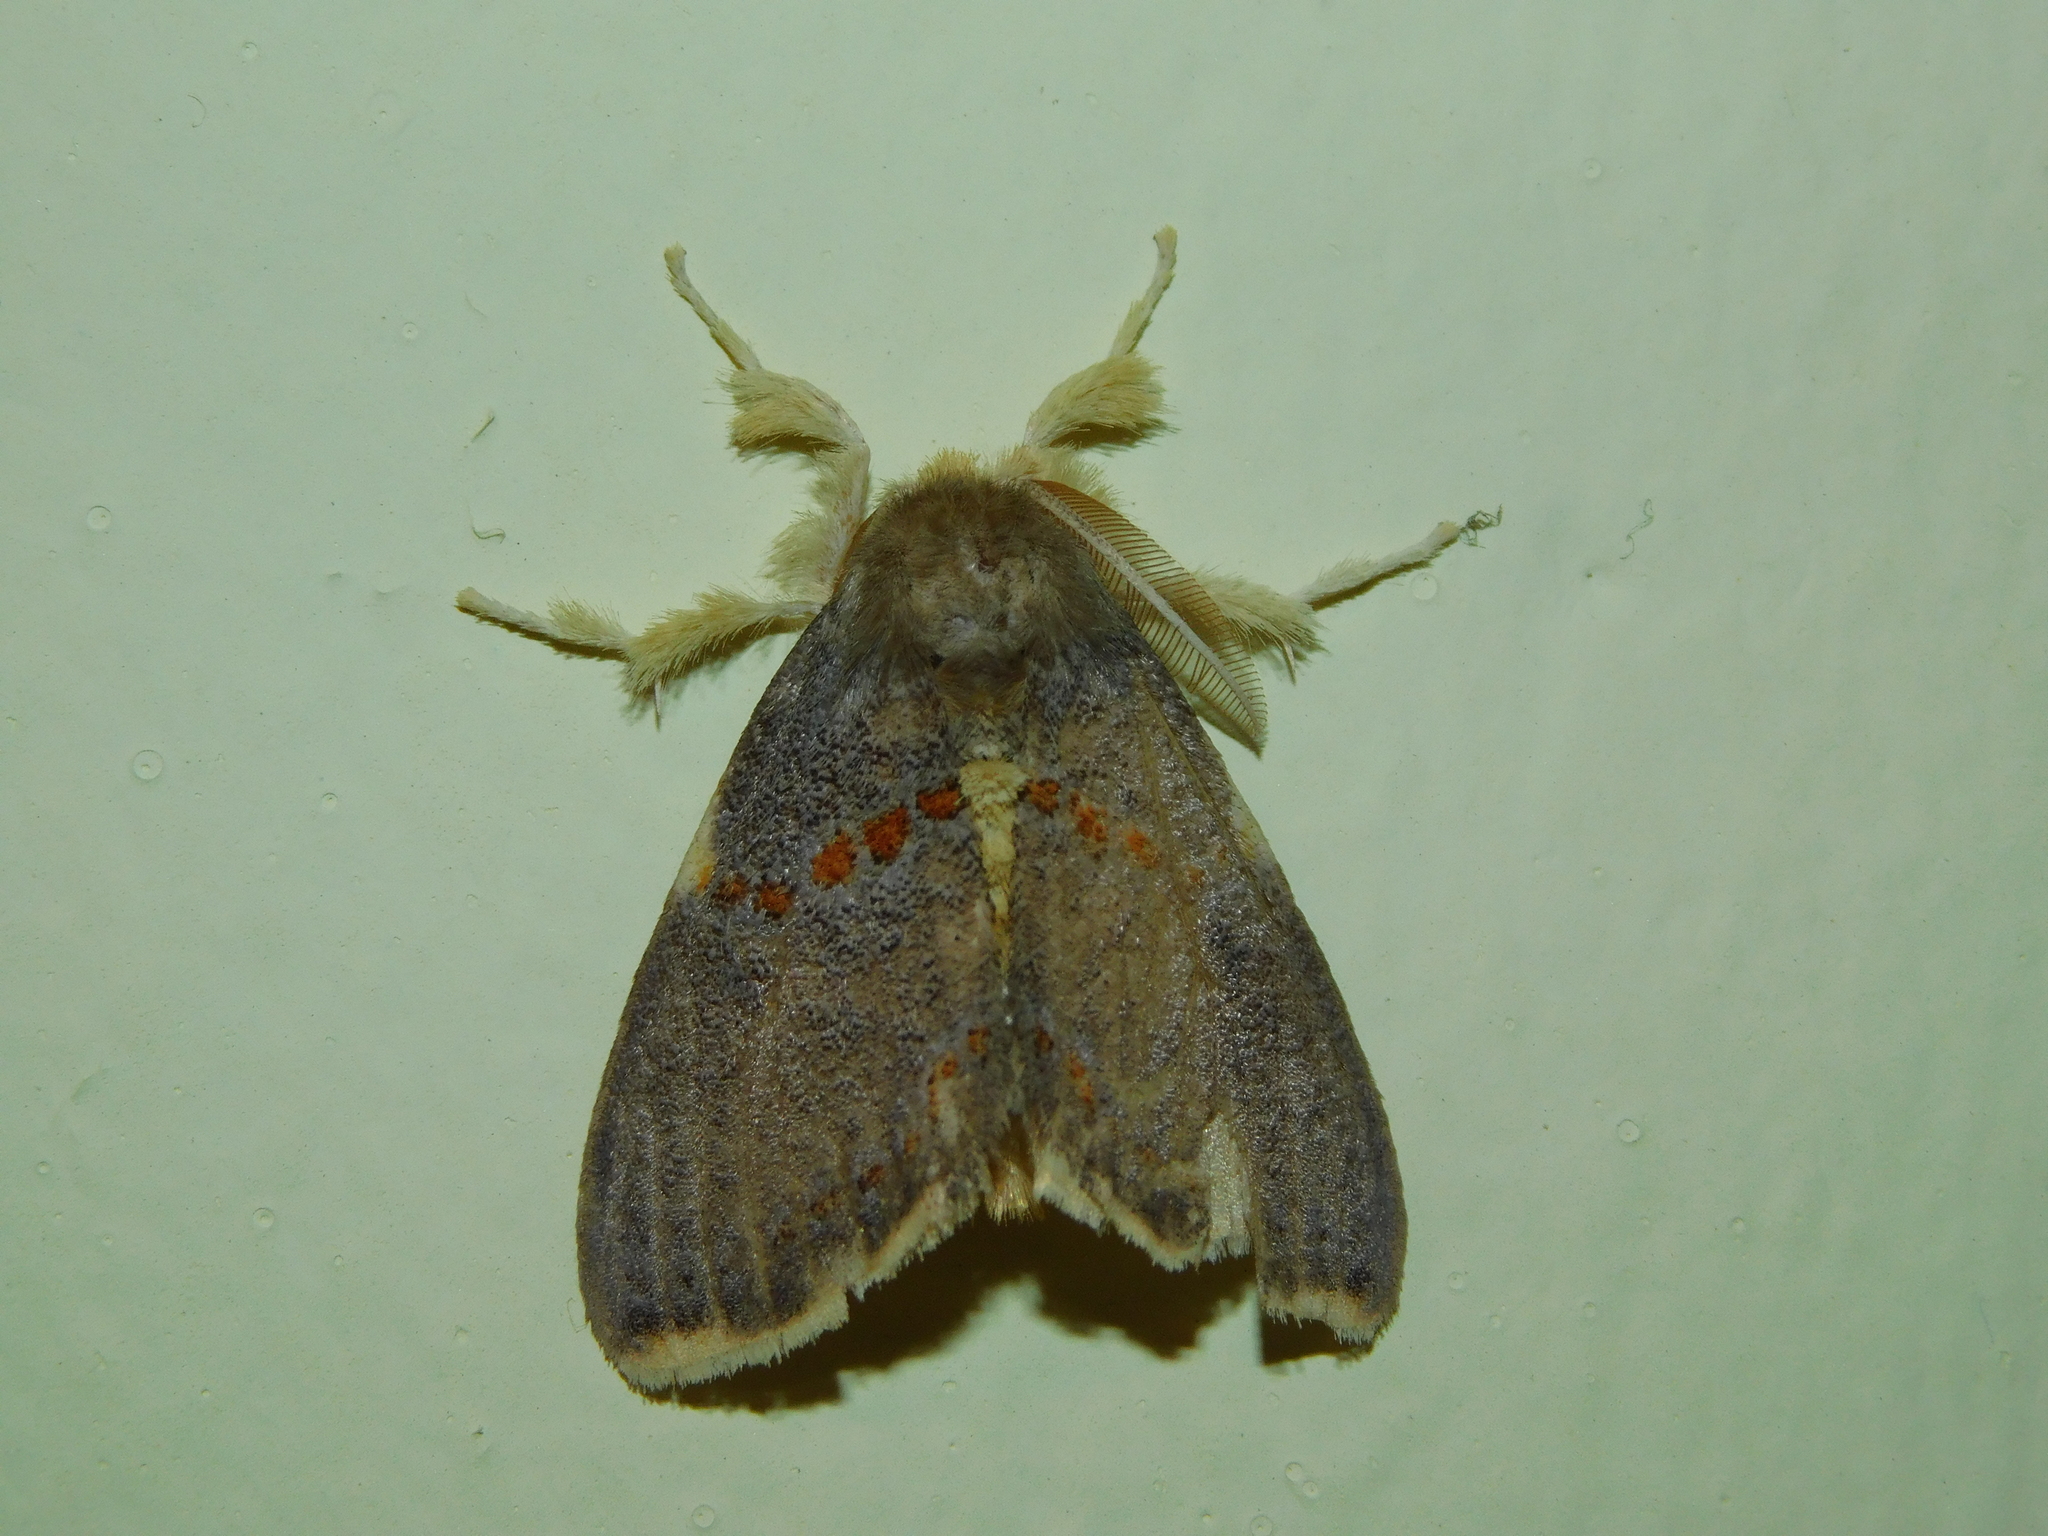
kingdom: Animalia
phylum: Arthropoda
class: Insecta
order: Lepidoptera
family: Erebidae
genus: Euproctis
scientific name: Euproctis luteifascia
